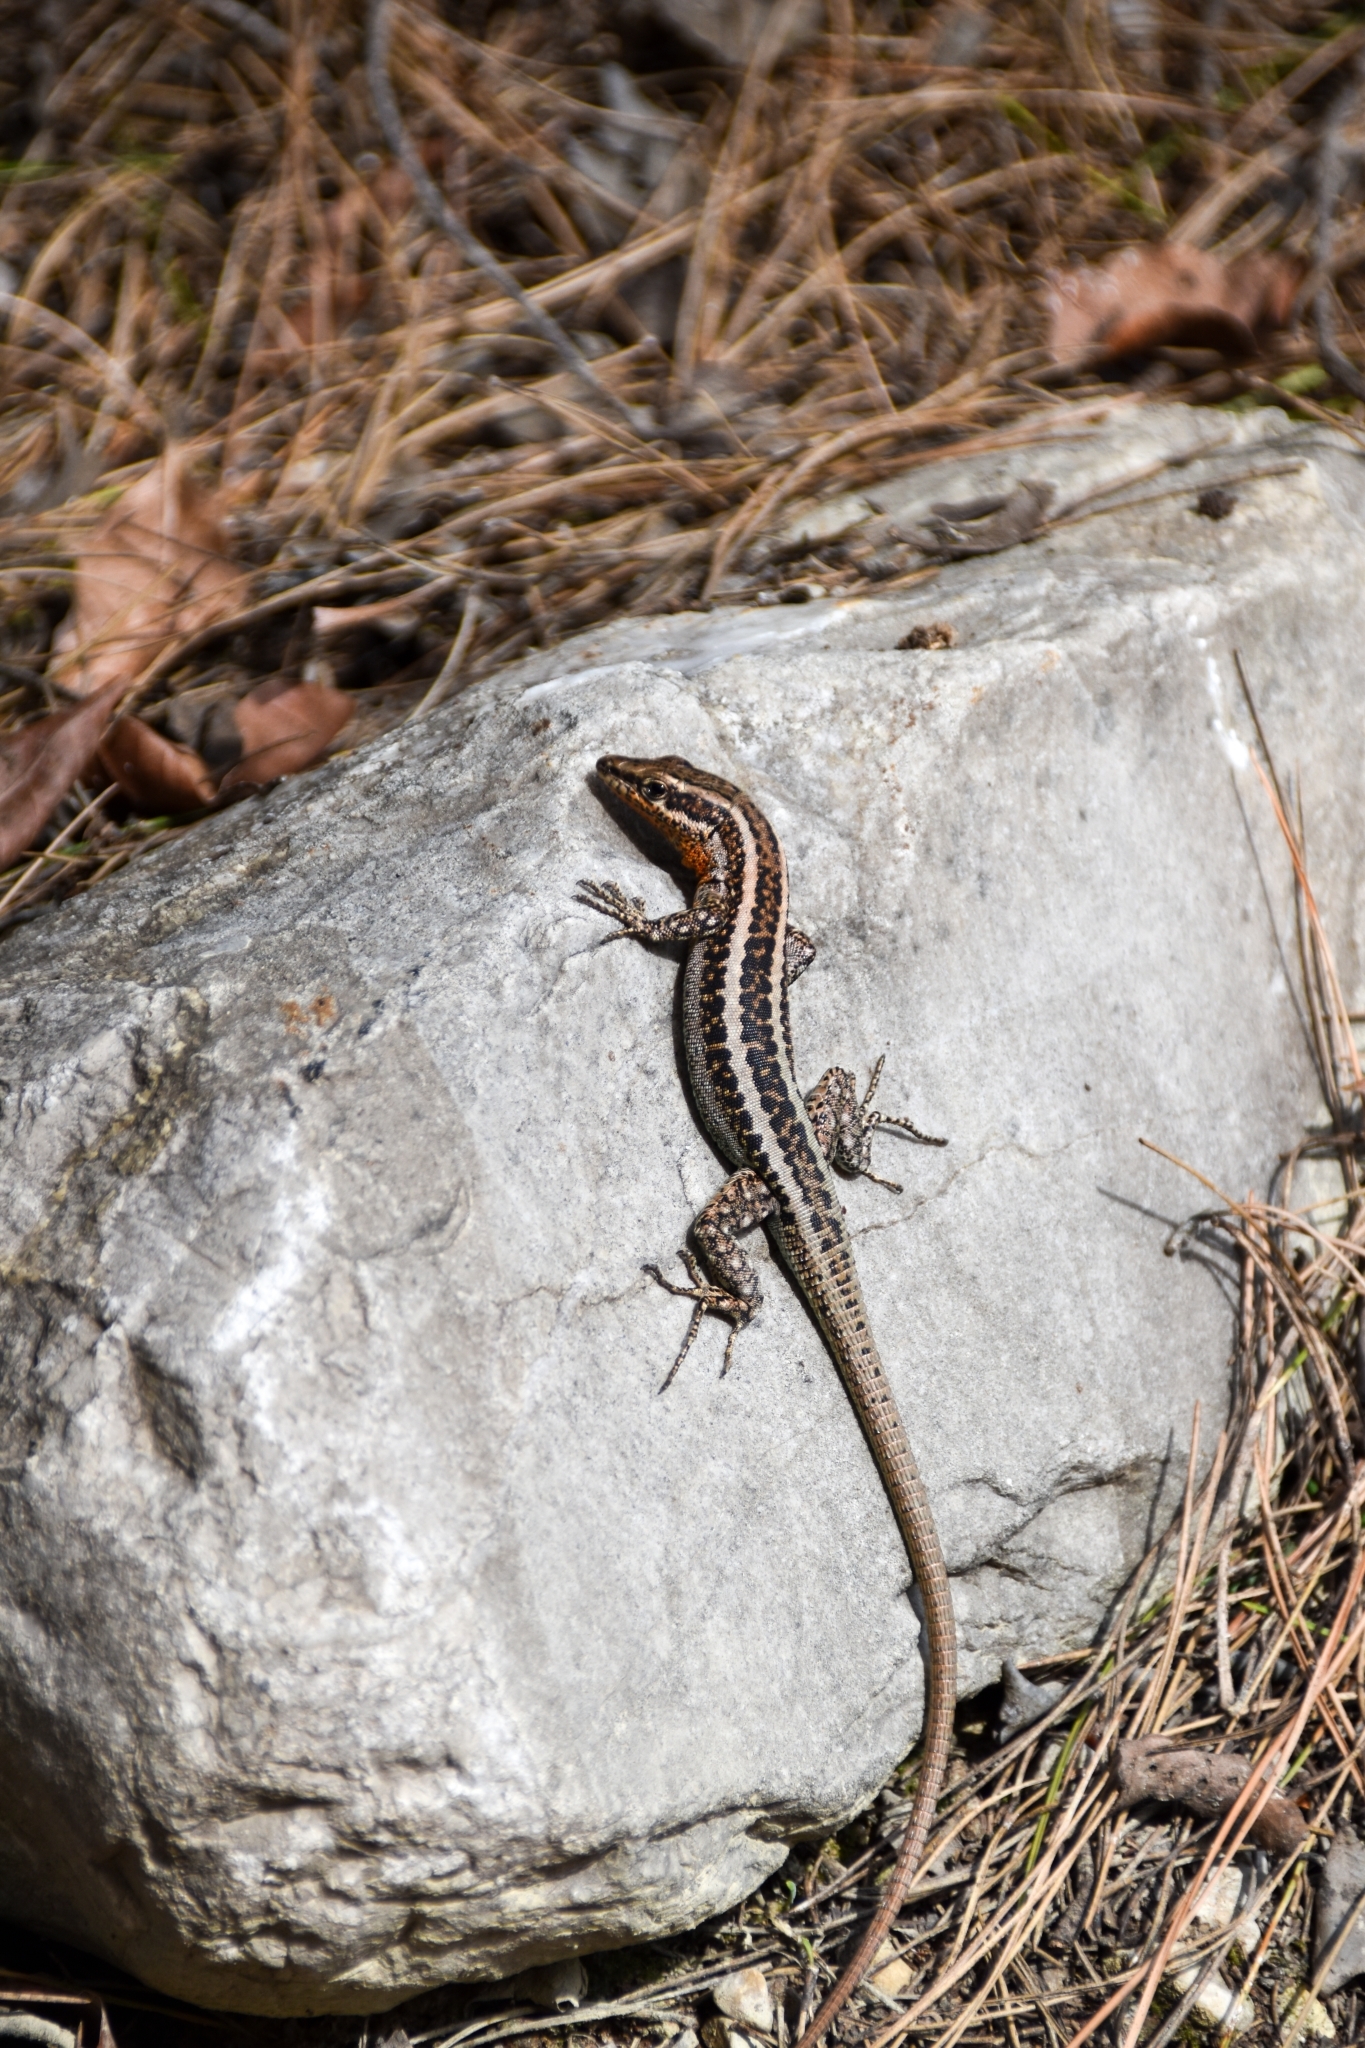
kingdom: Animalia
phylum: Chordata
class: Squamata
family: Lacertidae
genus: Anatololacerta
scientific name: Anatololacerta finikensis
